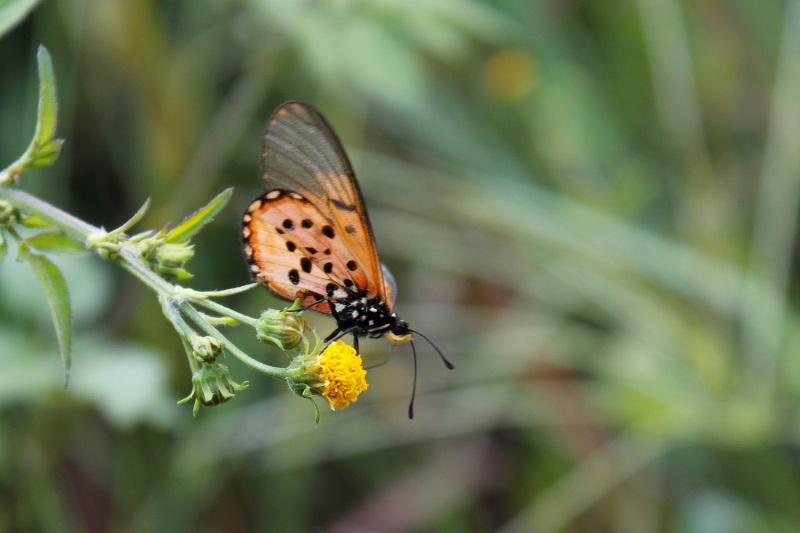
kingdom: Animalia
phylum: Arthropoda
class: Insecta
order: Lepidoptera
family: Nymphalidae
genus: Acraea
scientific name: Acraea horta
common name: Garden acraea
